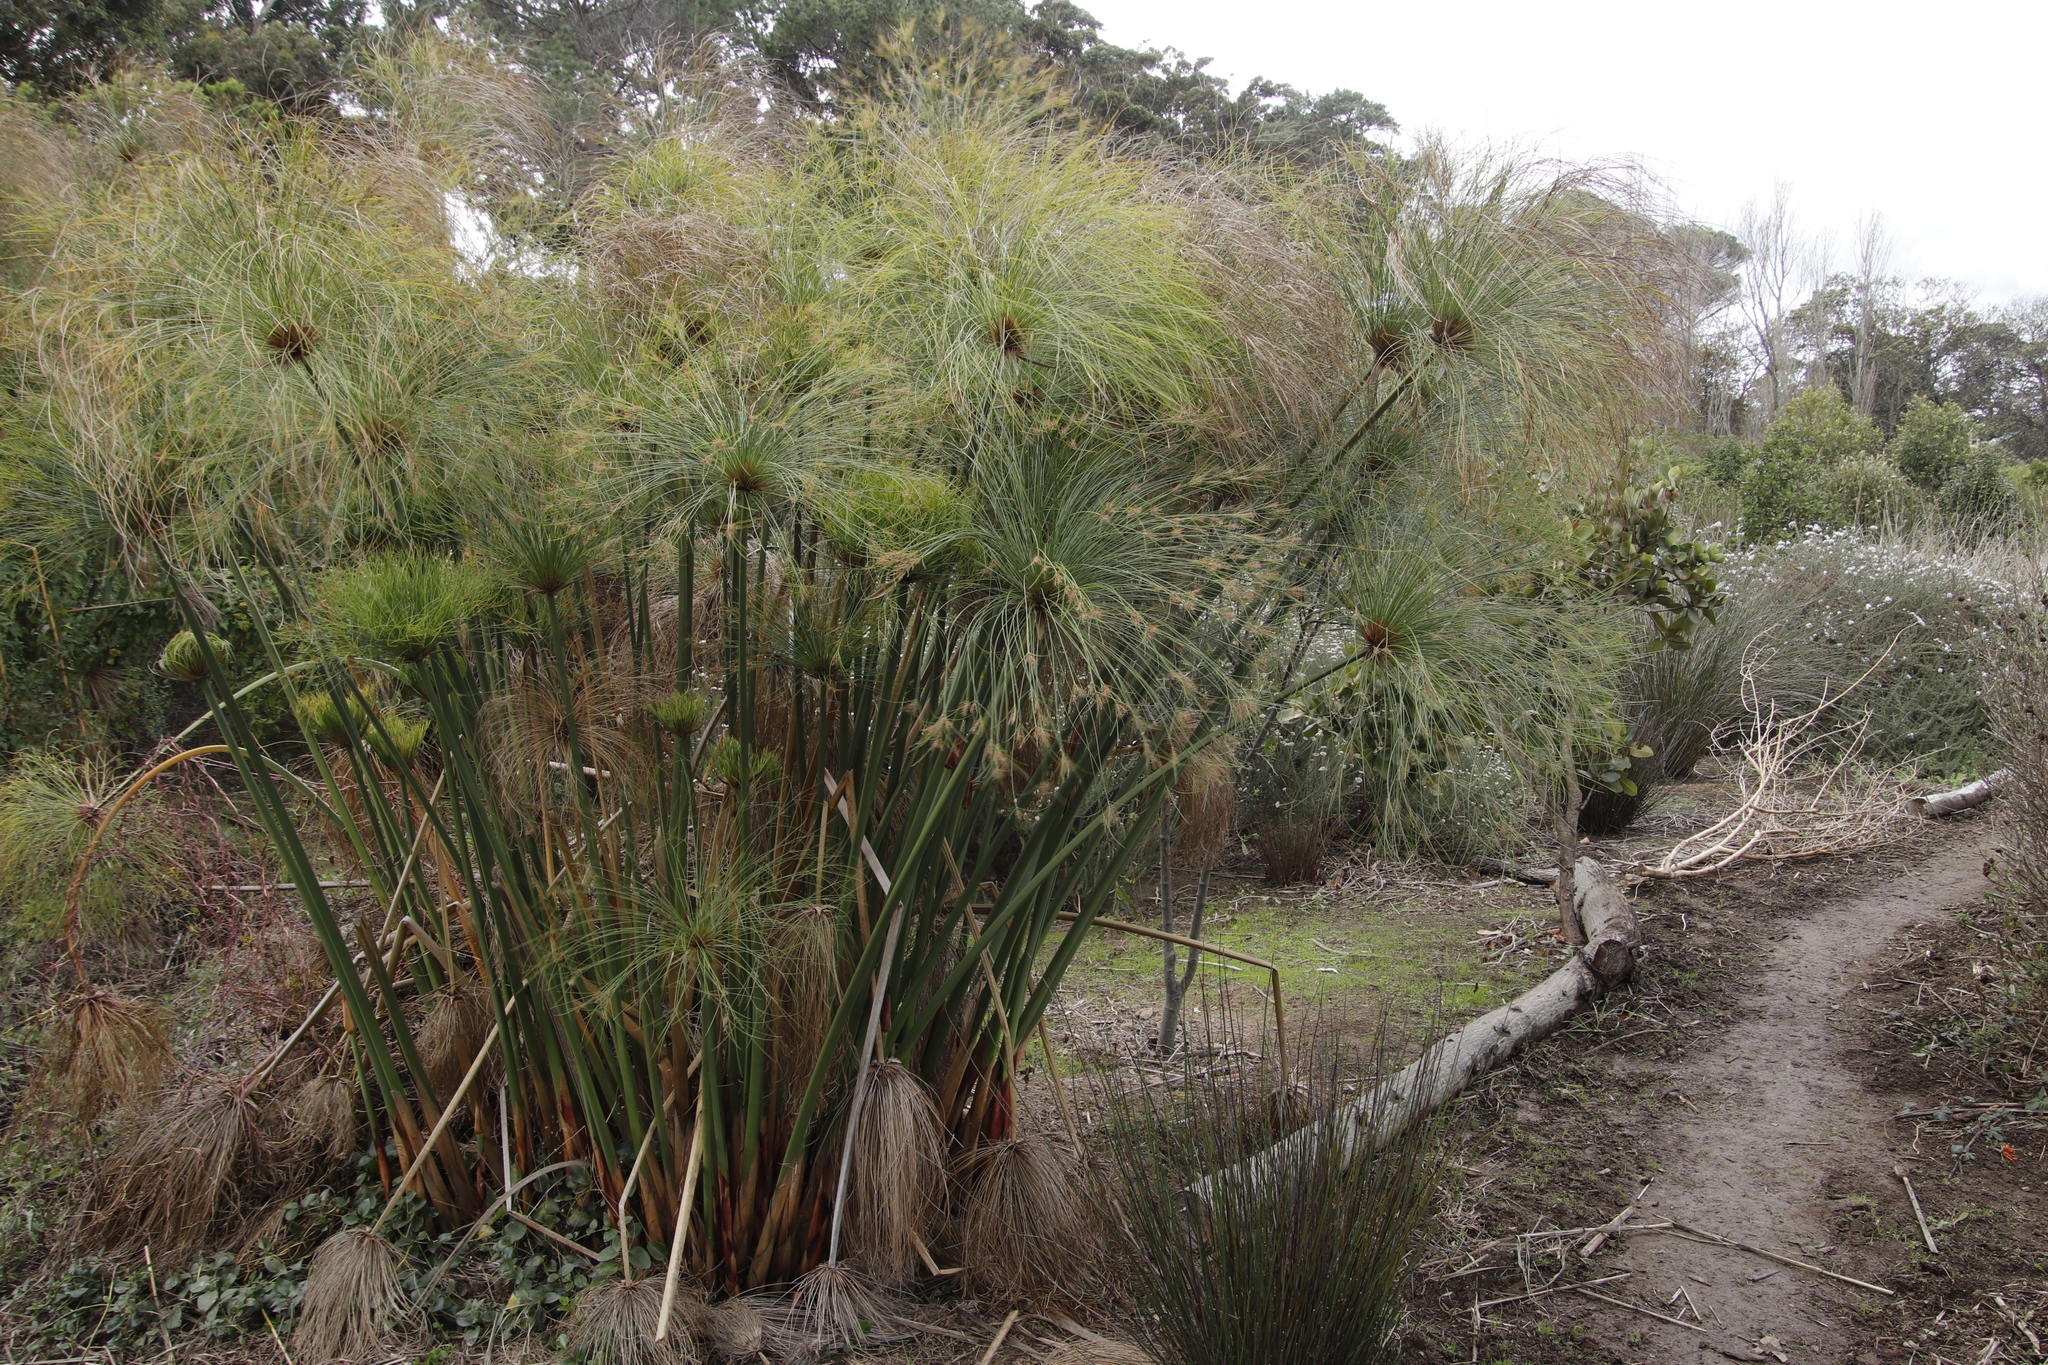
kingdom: Plantae
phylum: Tracheophyta
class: Liliopsida
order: Poales
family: Cyperaceae
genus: Cyperus
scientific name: Cyperus papyrus
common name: Papyrus
